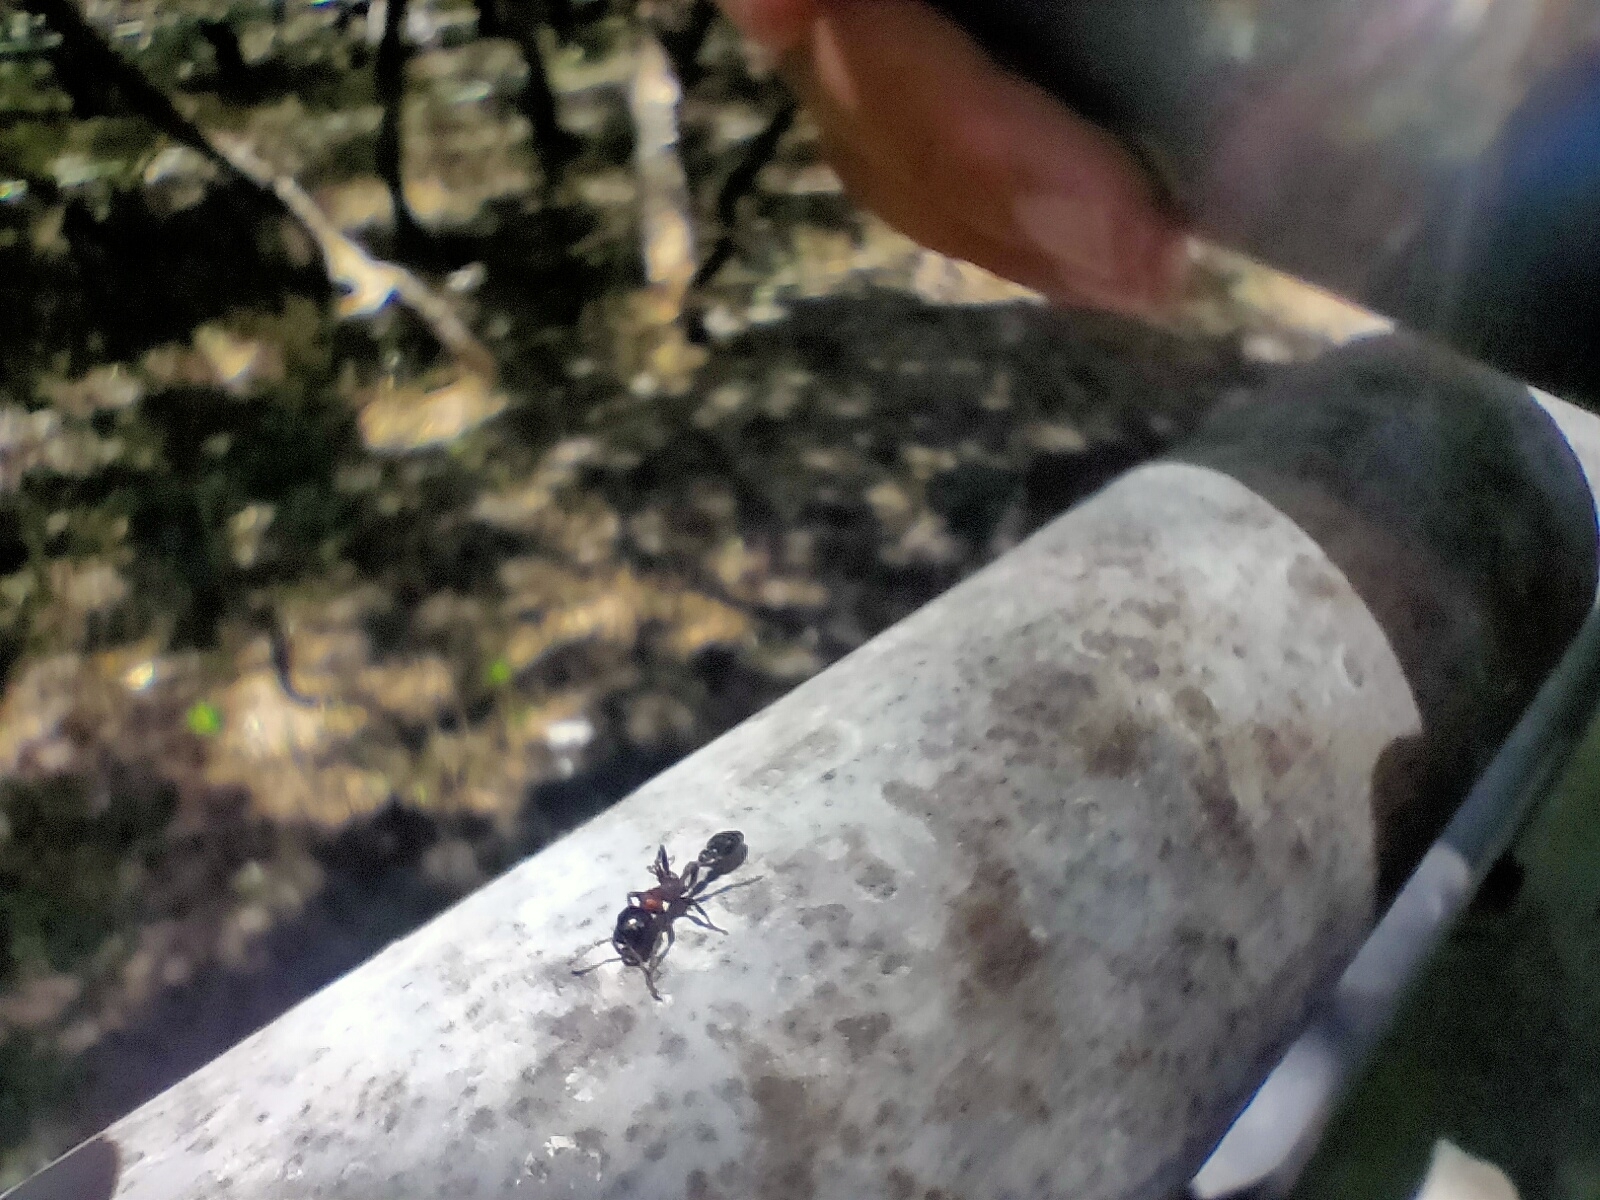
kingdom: Animalia
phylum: Arthropoda
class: Insecta
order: Hymenoptera
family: Formicidae
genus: Tetraponera
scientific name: Tetraponera rufonigra
